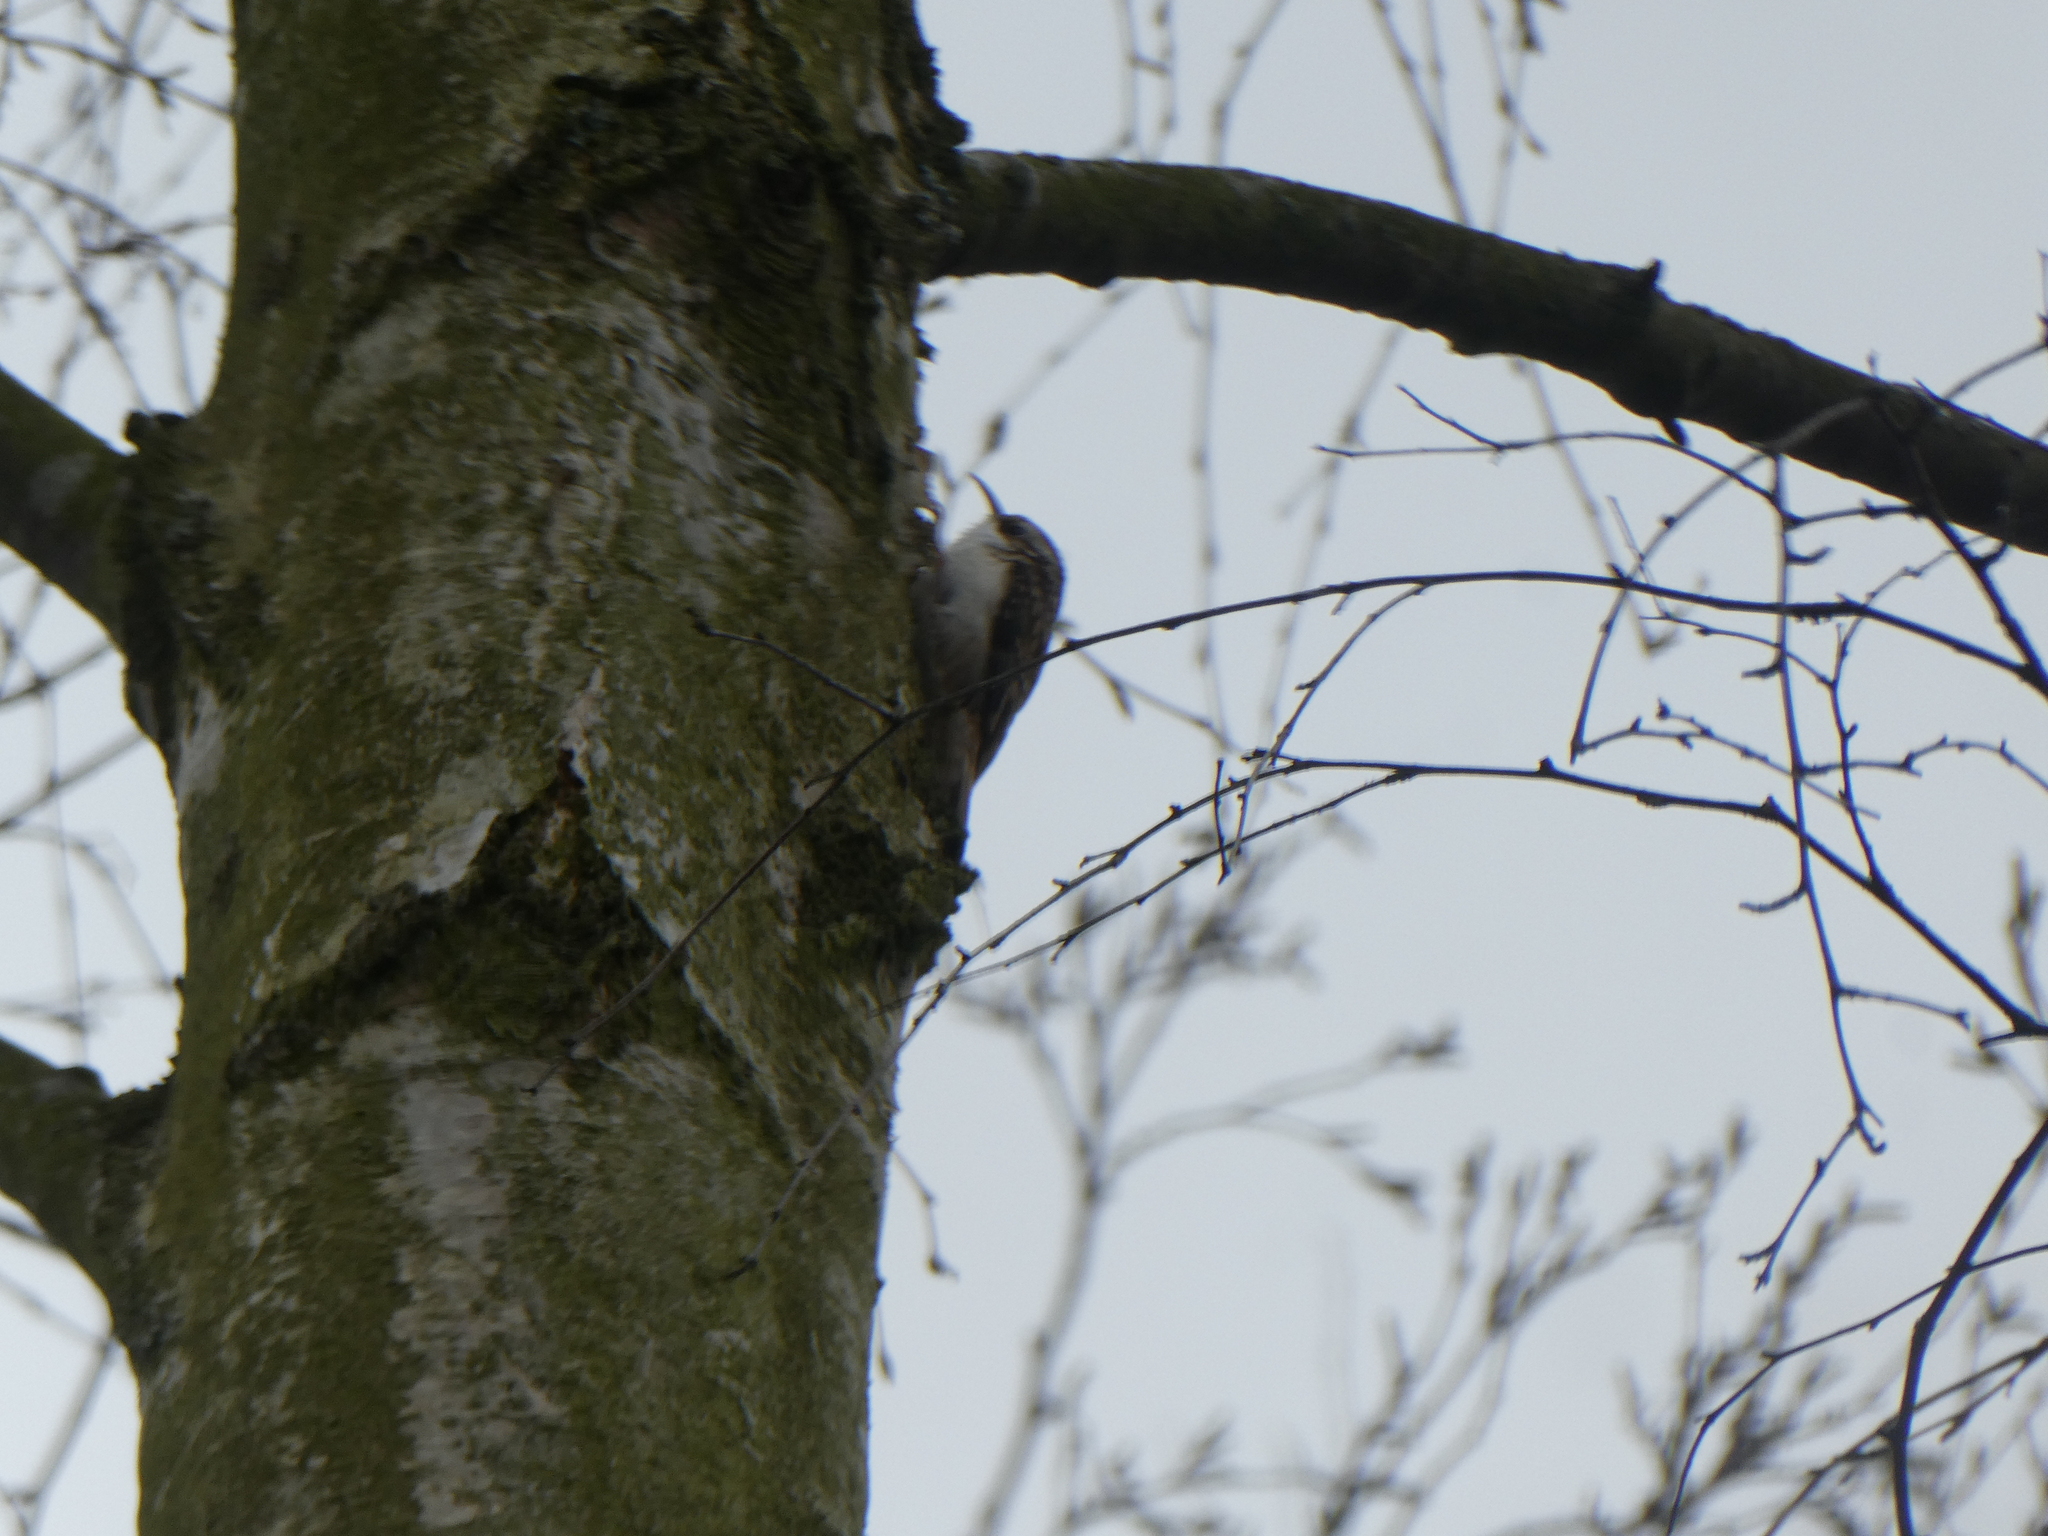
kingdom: Animalia
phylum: Chordata
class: Aves
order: Passeriformes
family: Certhiidae
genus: Certhia
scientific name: Certhia familiaris
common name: Eurasian treecreeper
